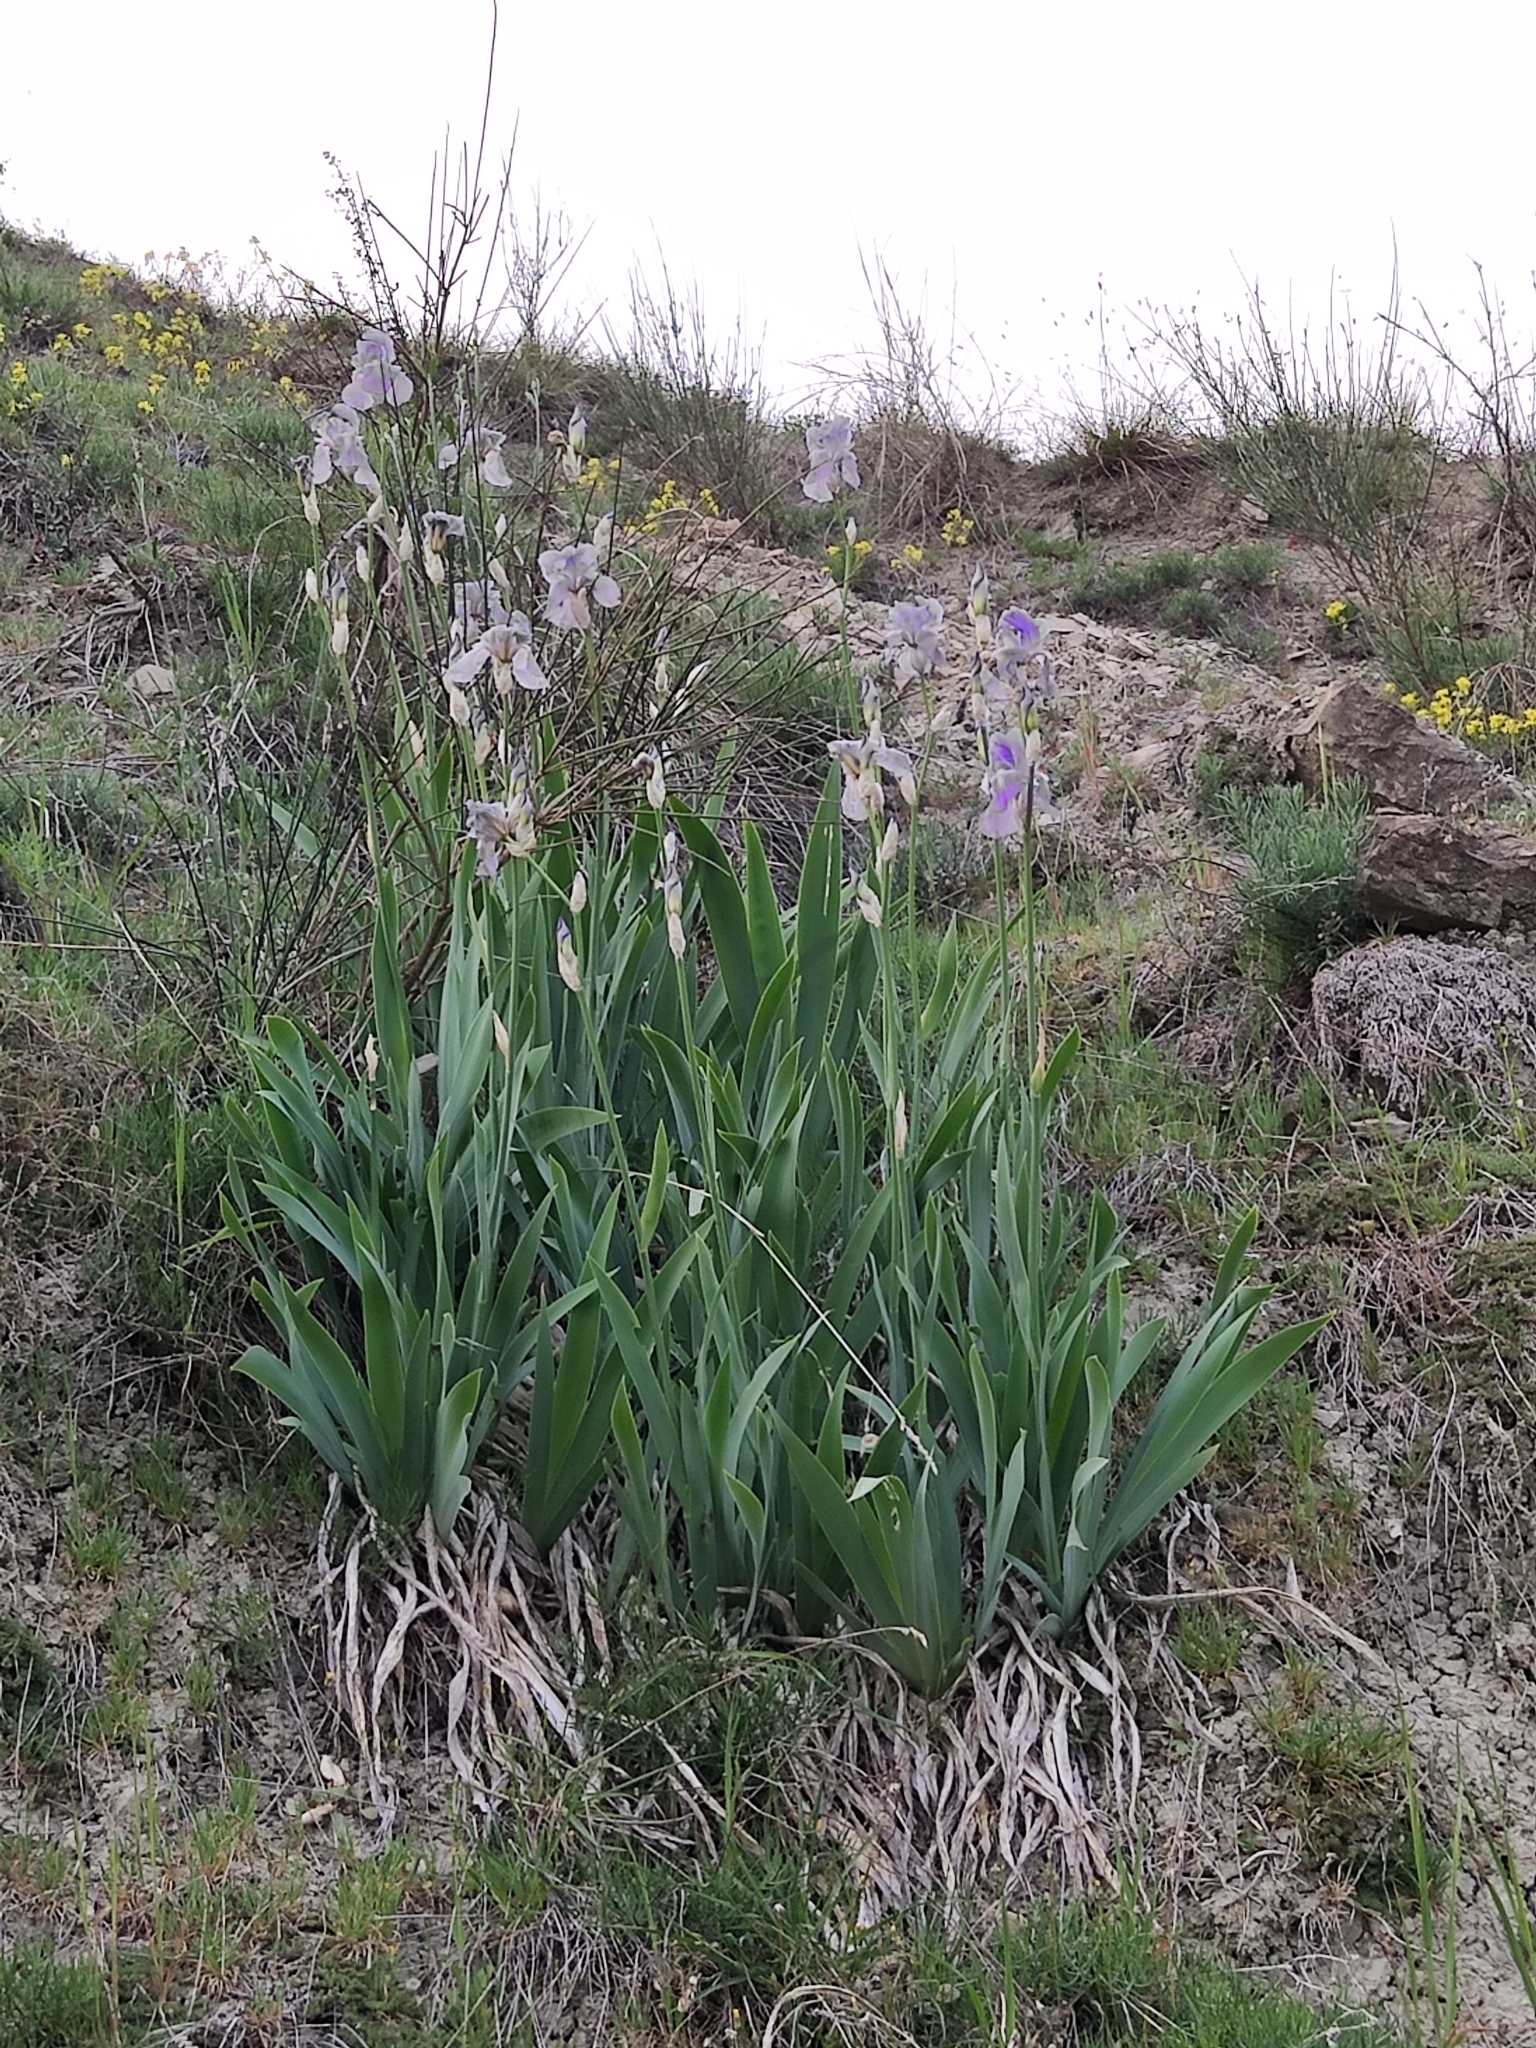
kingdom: Plantae
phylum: Tracheophyta
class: Liliopsida
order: Asparagales
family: Iridaceae
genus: Iris
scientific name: Iris pallida
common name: Sweet iris
